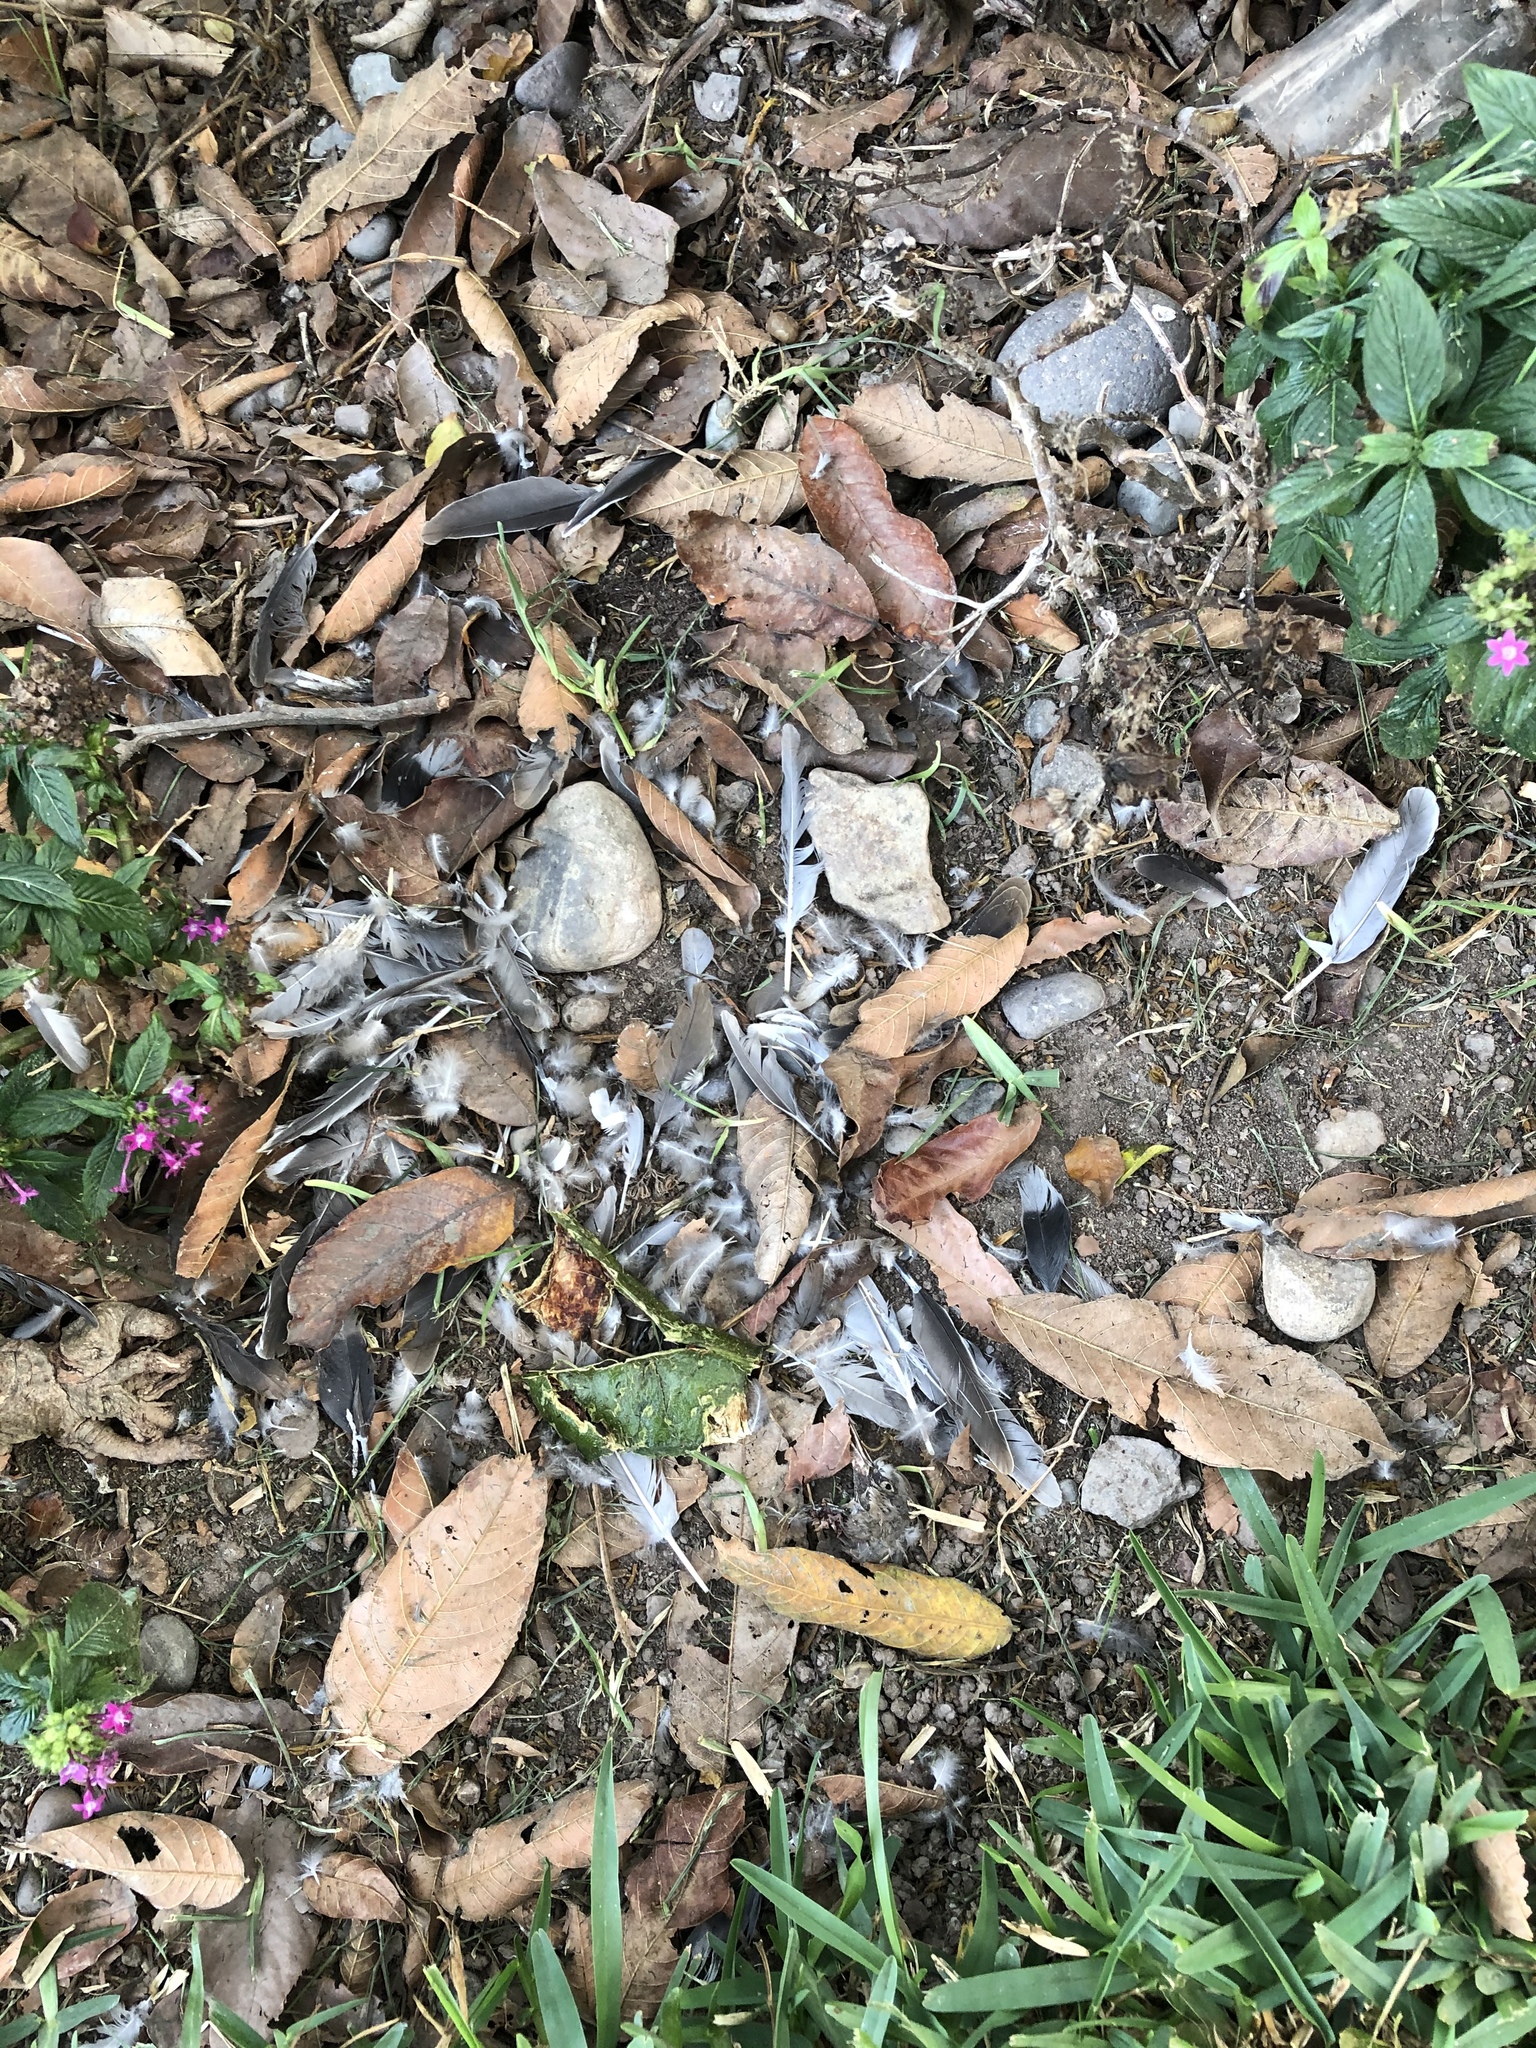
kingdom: Animalia
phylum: Chordata
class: Aves
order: Columbiformes
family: Columbidae
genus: Zenaida
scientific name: Zenaida meloda
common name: West peruvian dove
